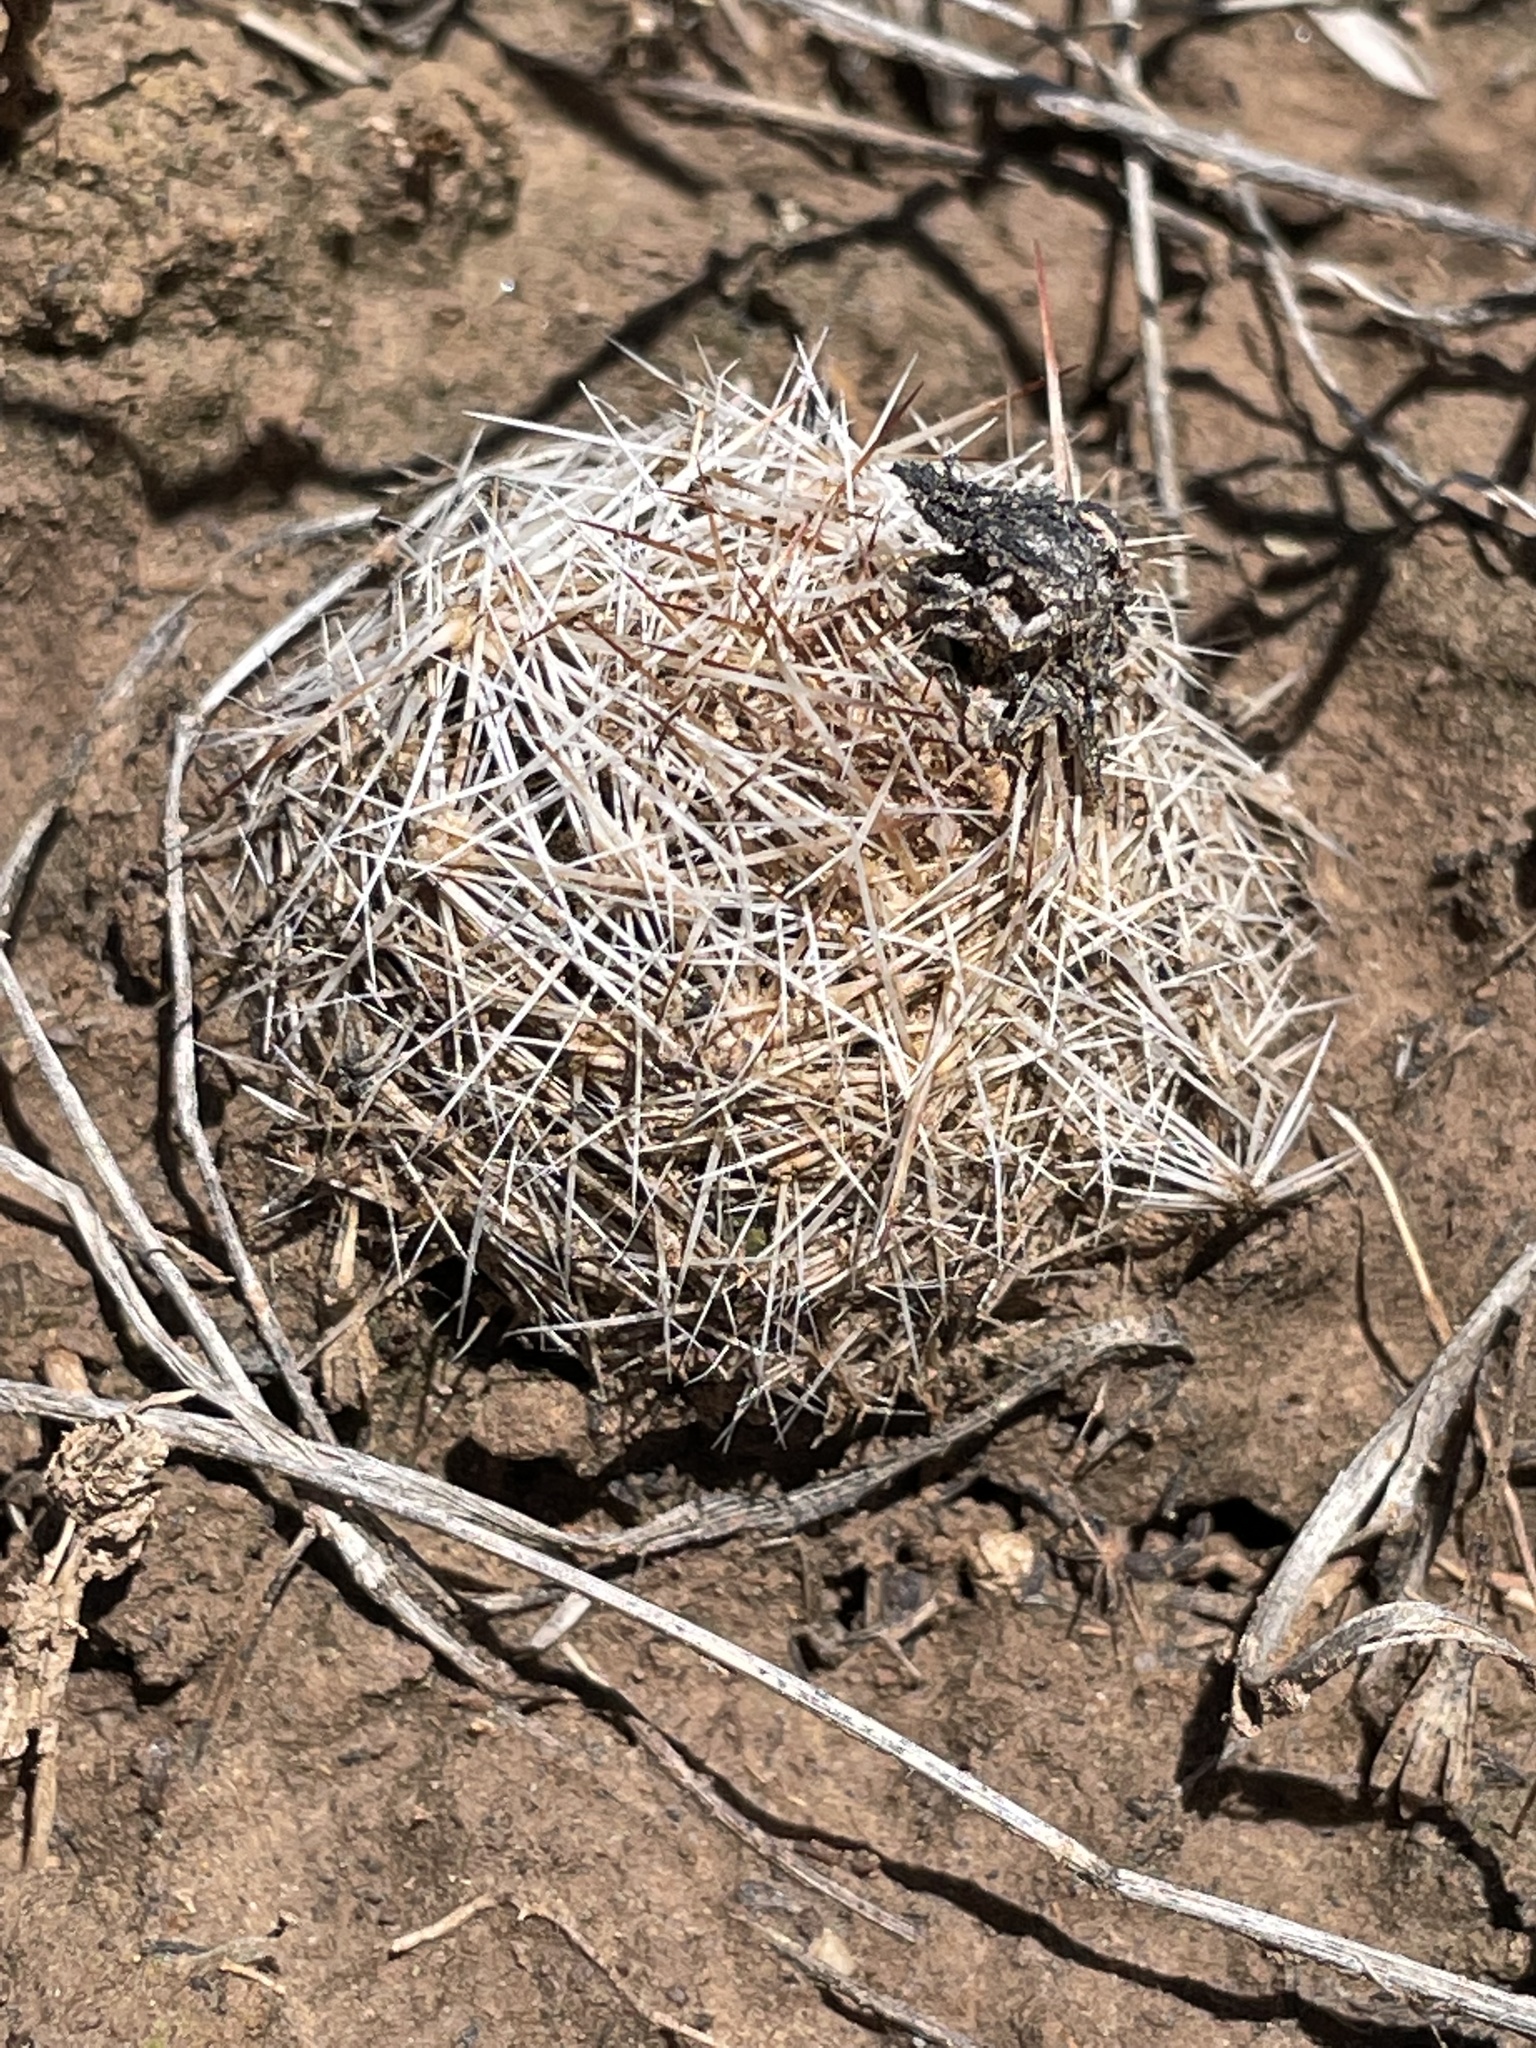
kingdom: Plantae
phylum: Tracheophyta
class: Magnoliopsida
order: Caryophyllales
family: Cactaceae
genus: Pelecyphora
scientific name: Pelecyphora vivipara
